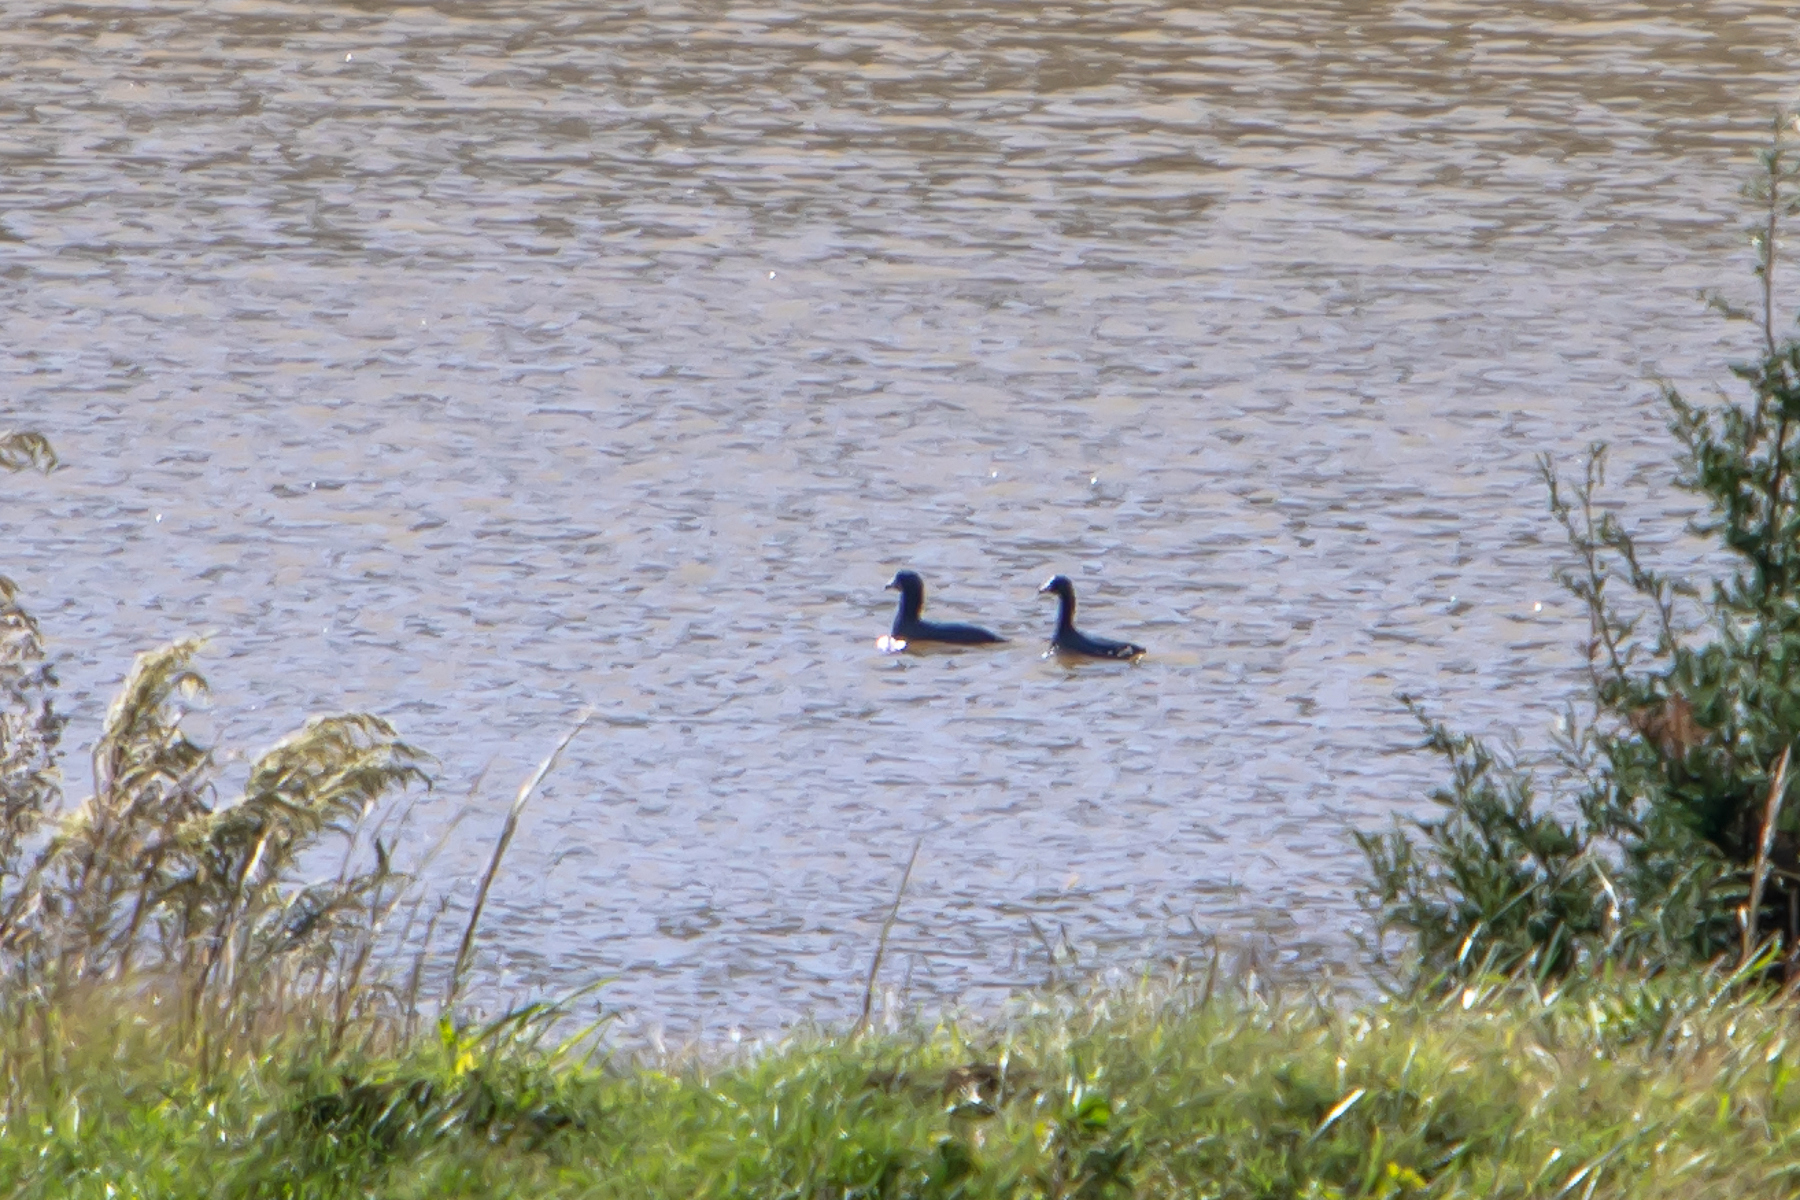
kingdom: Animalia
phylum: Chordata
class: Aves
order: Gruiformes
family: Rallidae
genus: Fulica
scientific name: Fulica americana
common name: American coot
